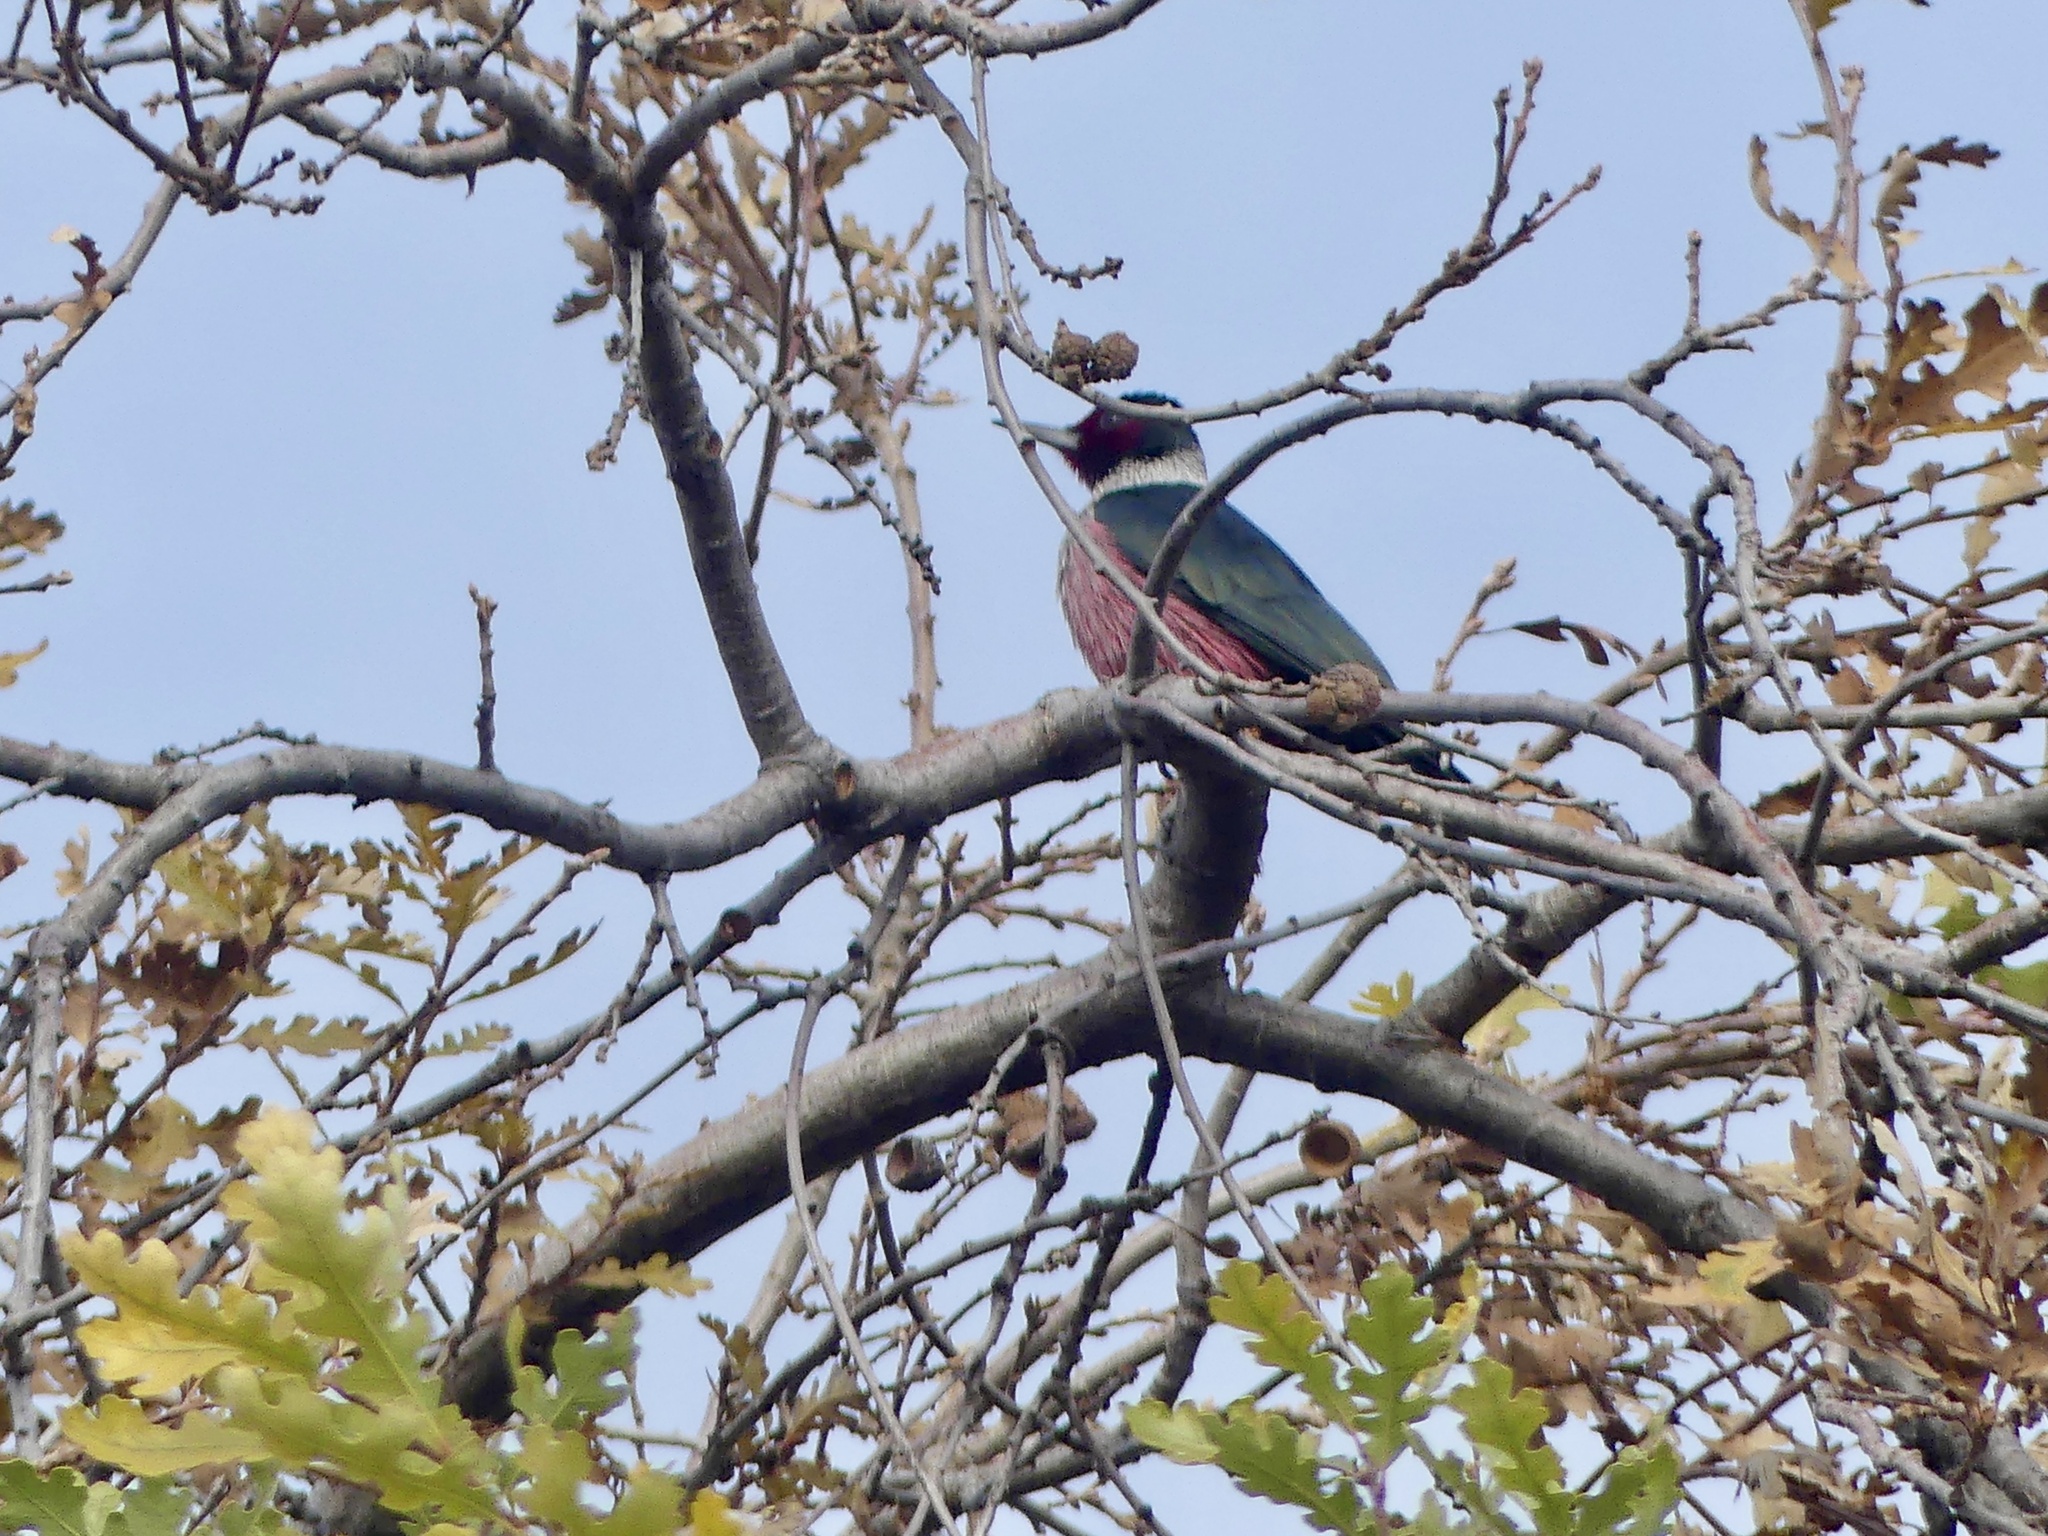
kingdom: Animalia
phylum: Chordata
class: Aves
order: Piciformes
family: Picidae
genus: Melanerpes
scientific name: Melanerpes lewis
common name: Lewis's woodpecker
